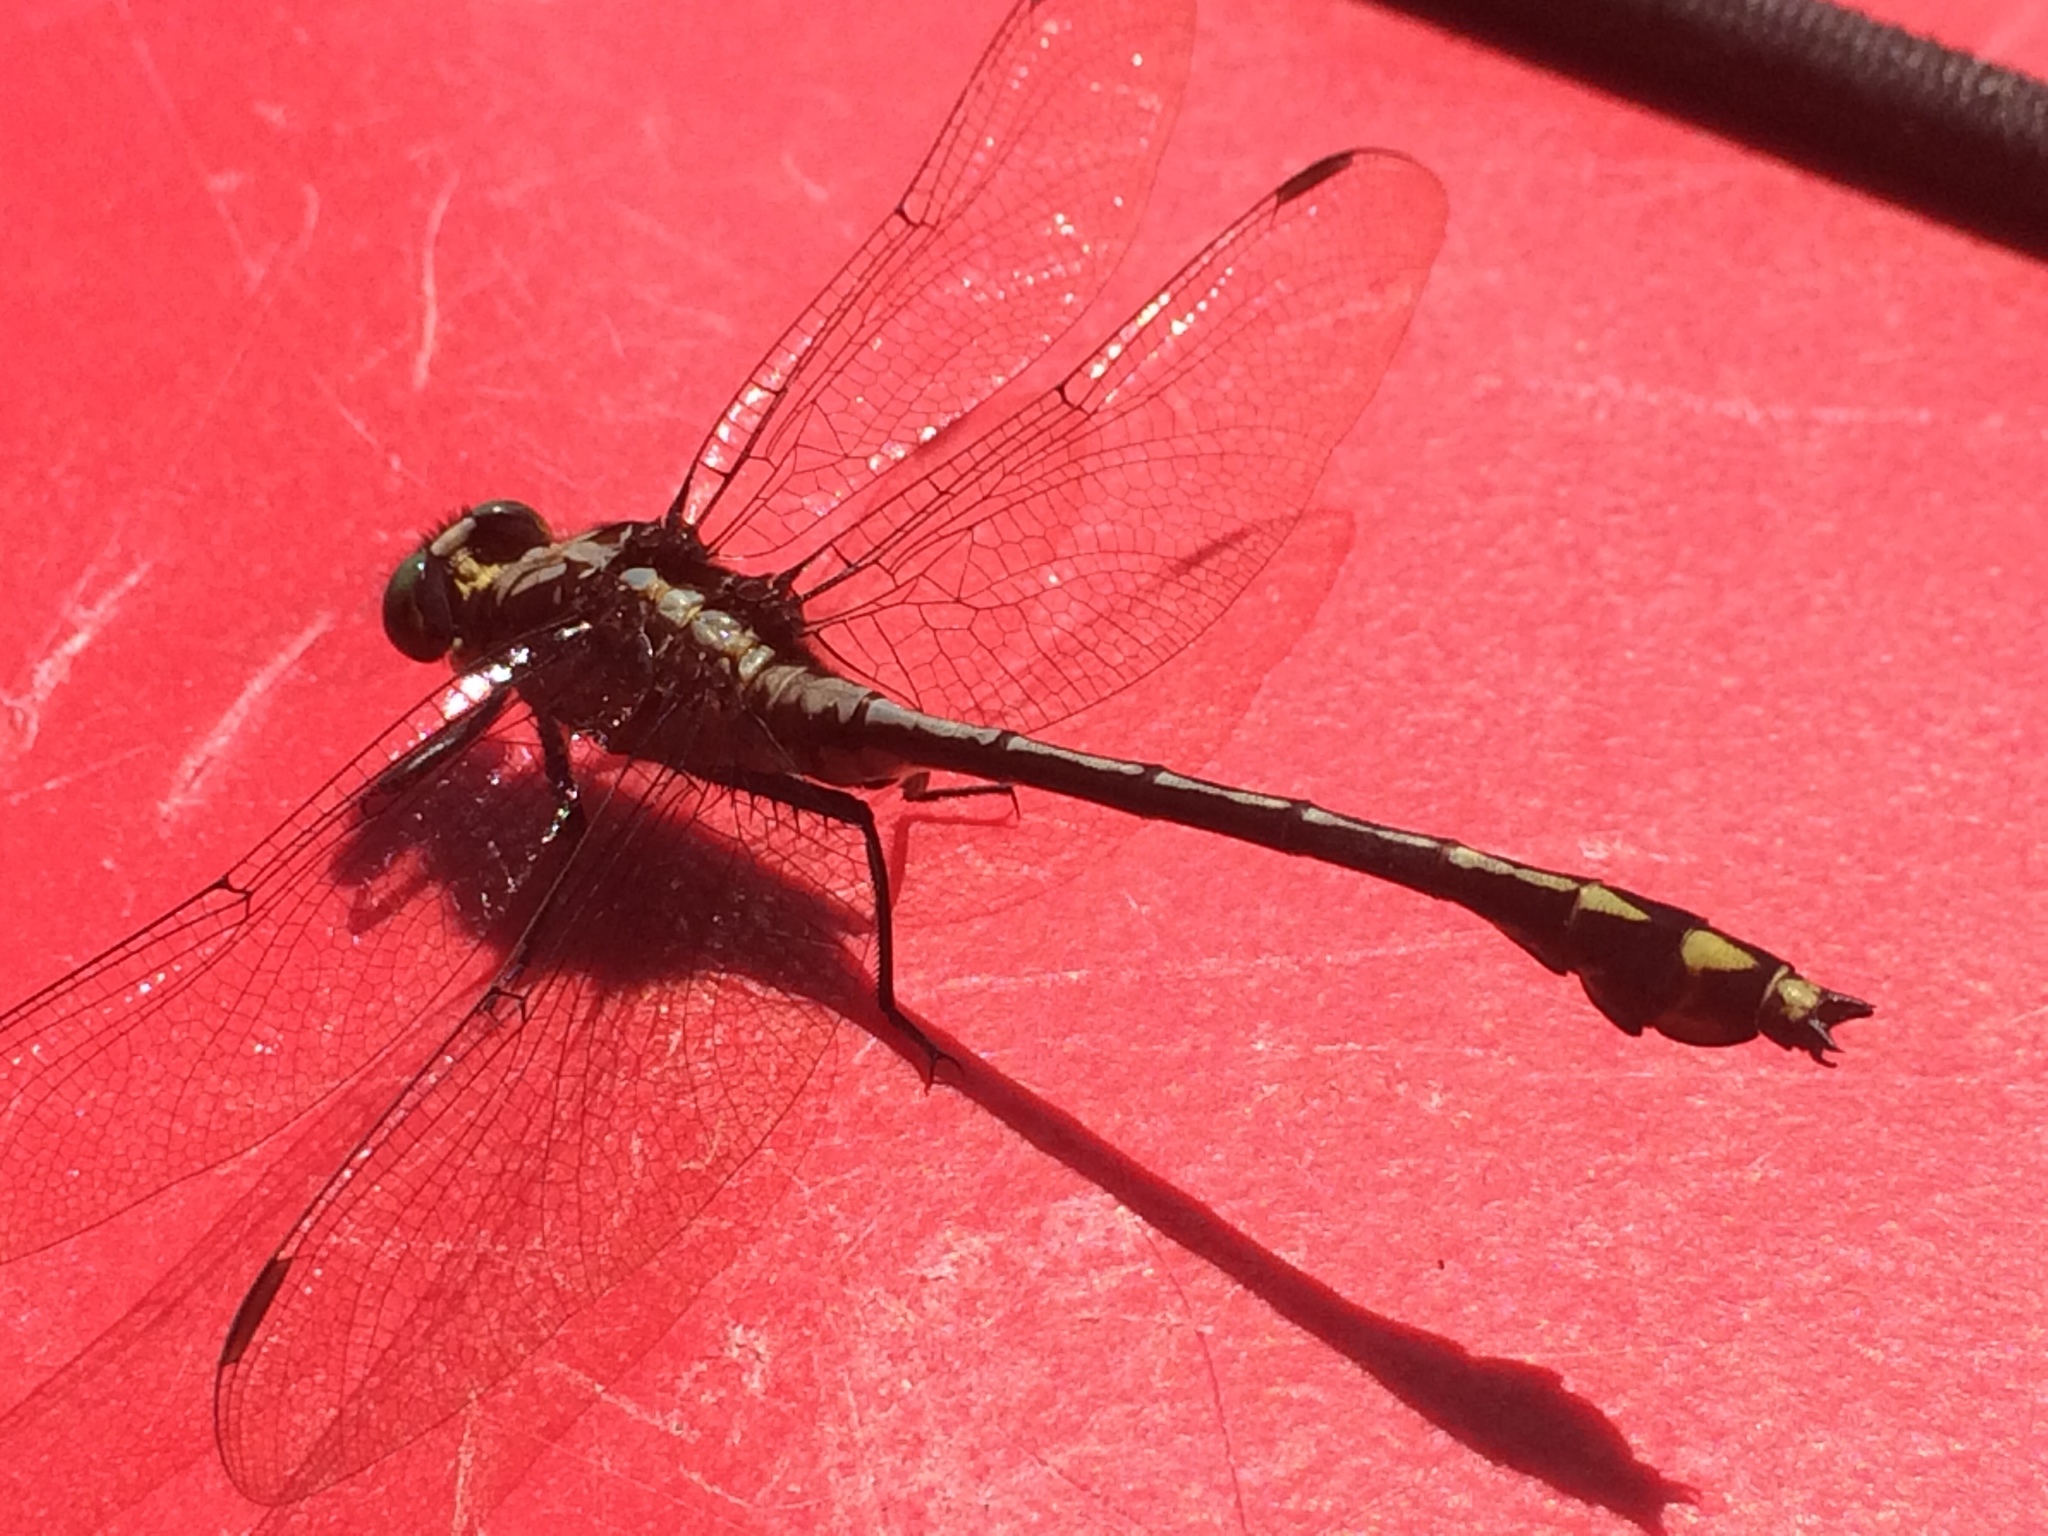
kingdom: Animalia
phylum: Arthropoda
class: Insecta
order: Odonata
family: Gomphidae
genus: Dromogomphus
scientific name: Dromogomphus spinosus
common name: Black-shouldered spinyleg
